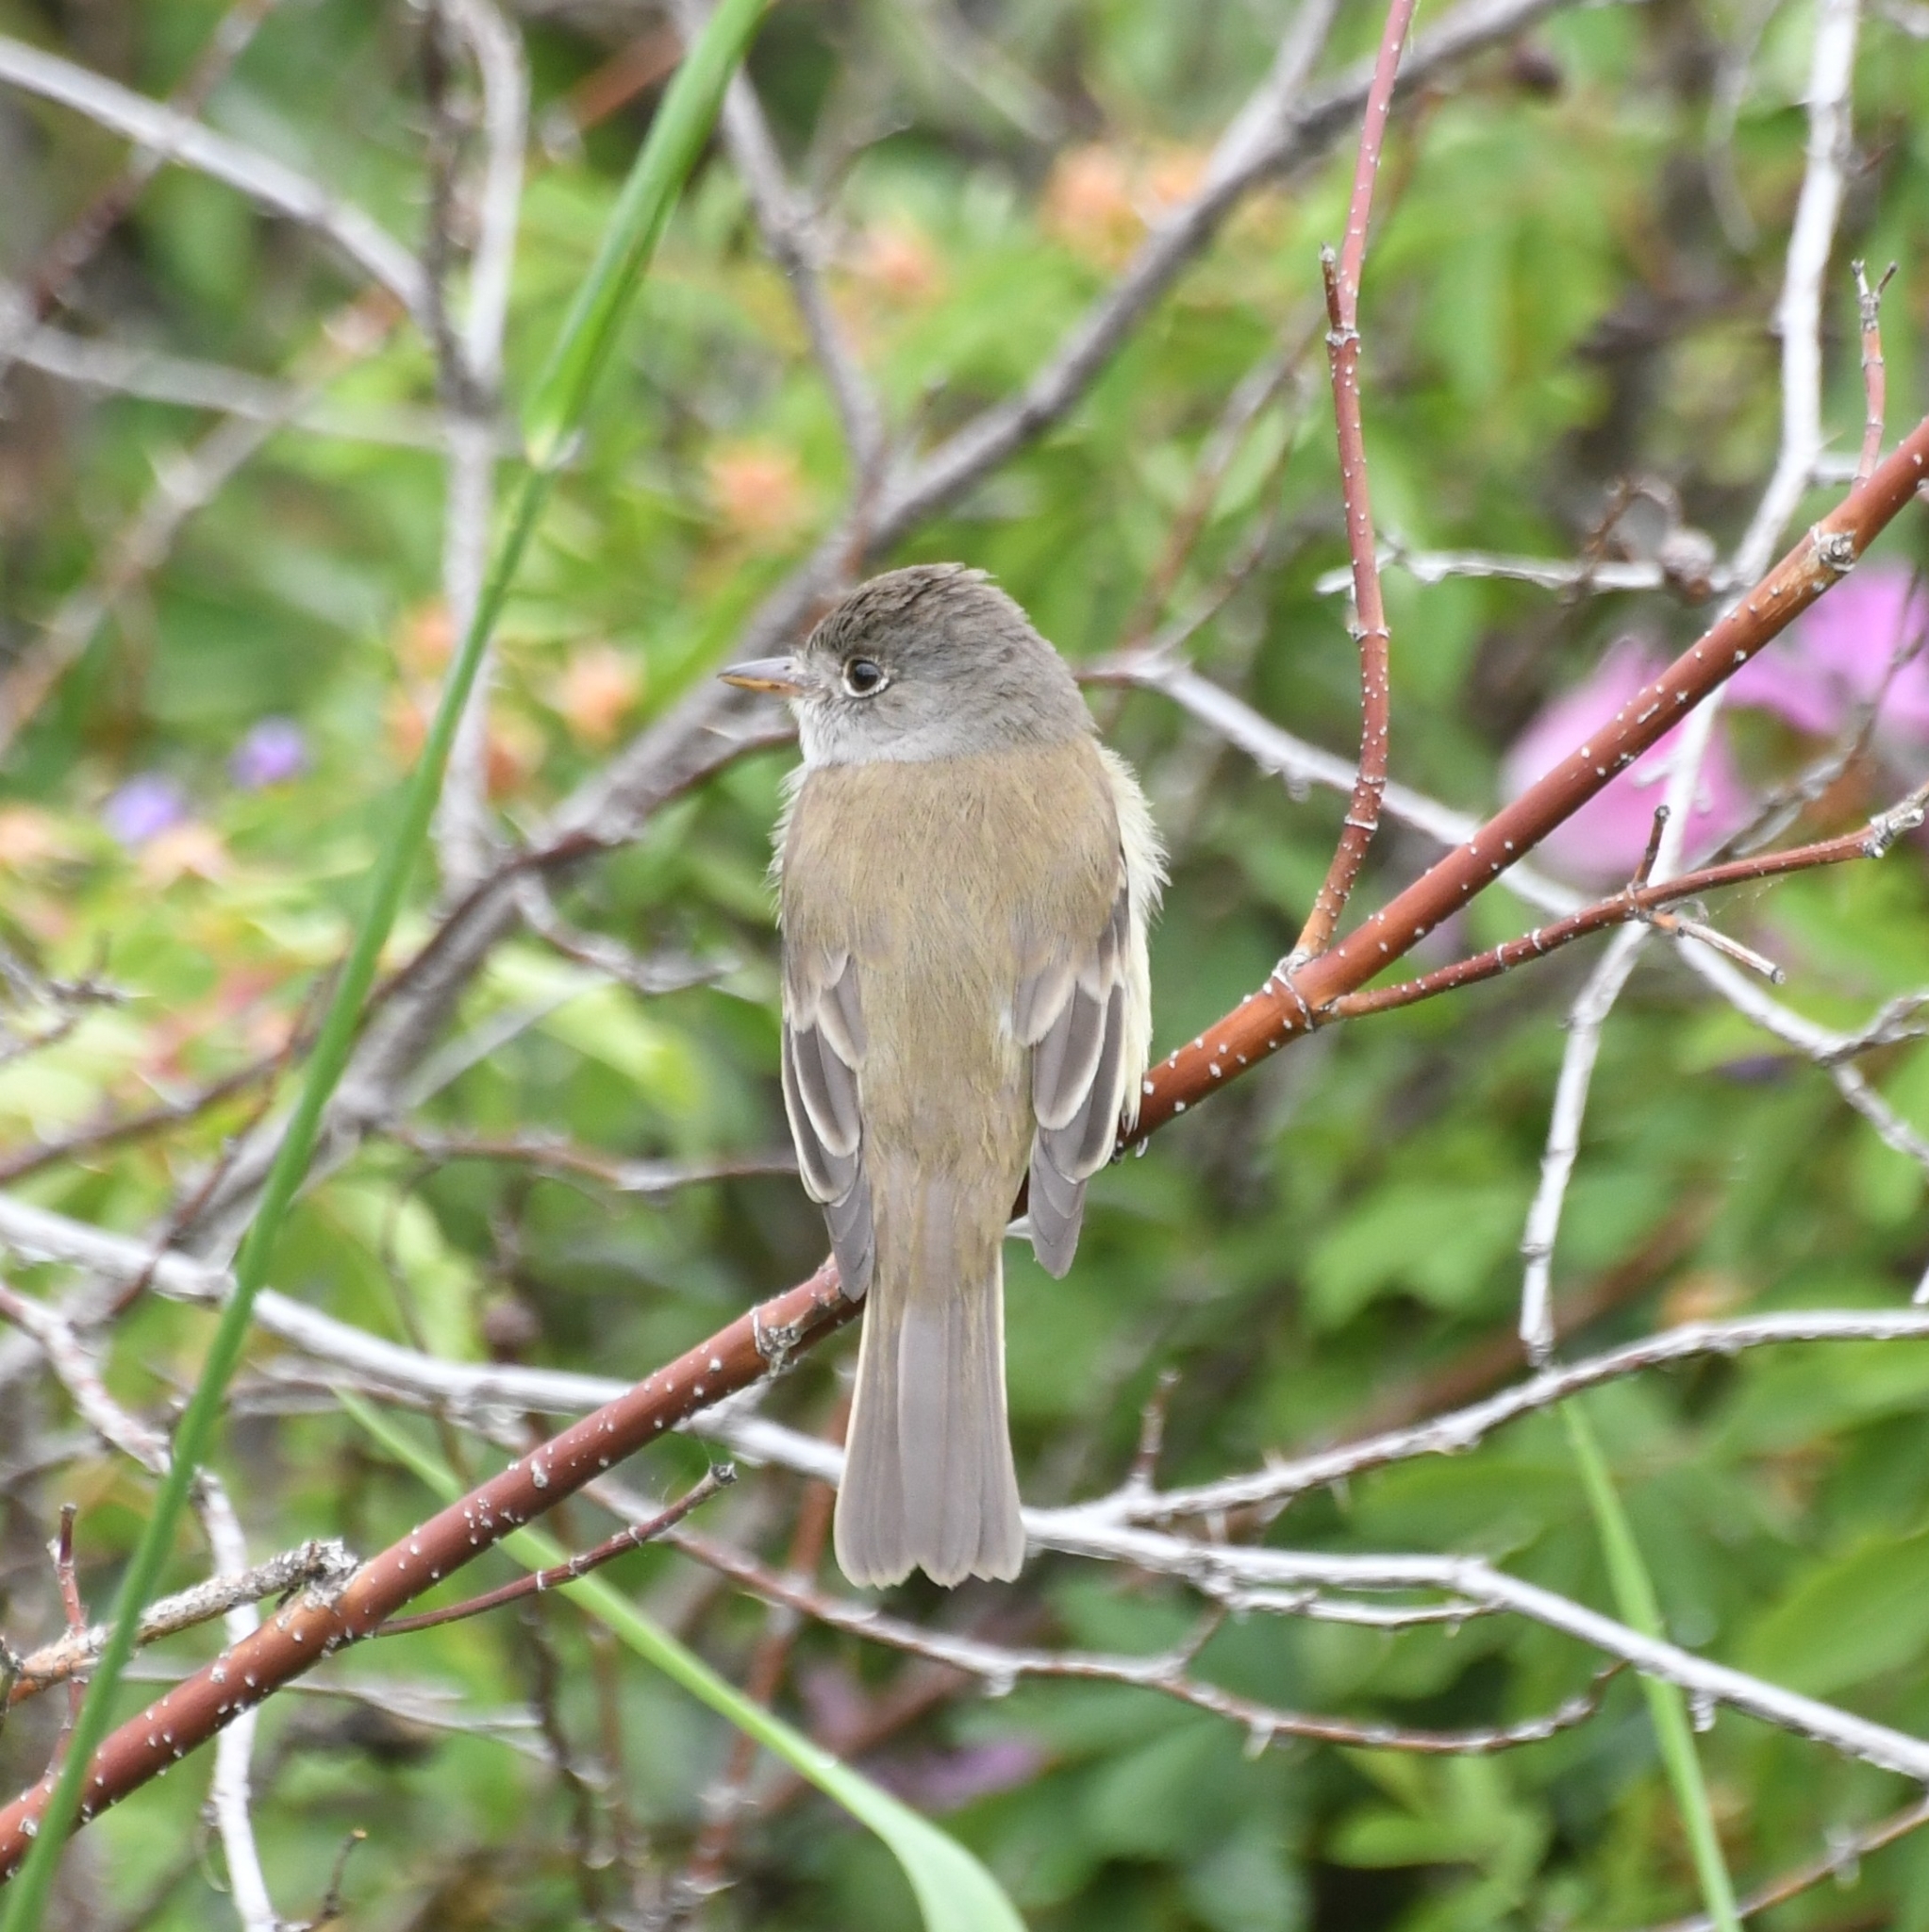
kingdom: Animalia
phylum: Chordata
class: Aves
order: Passeriformes
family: Tyrannidae
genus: Empidonax
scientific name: Empidonax traillii
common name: Willow flycatcher
